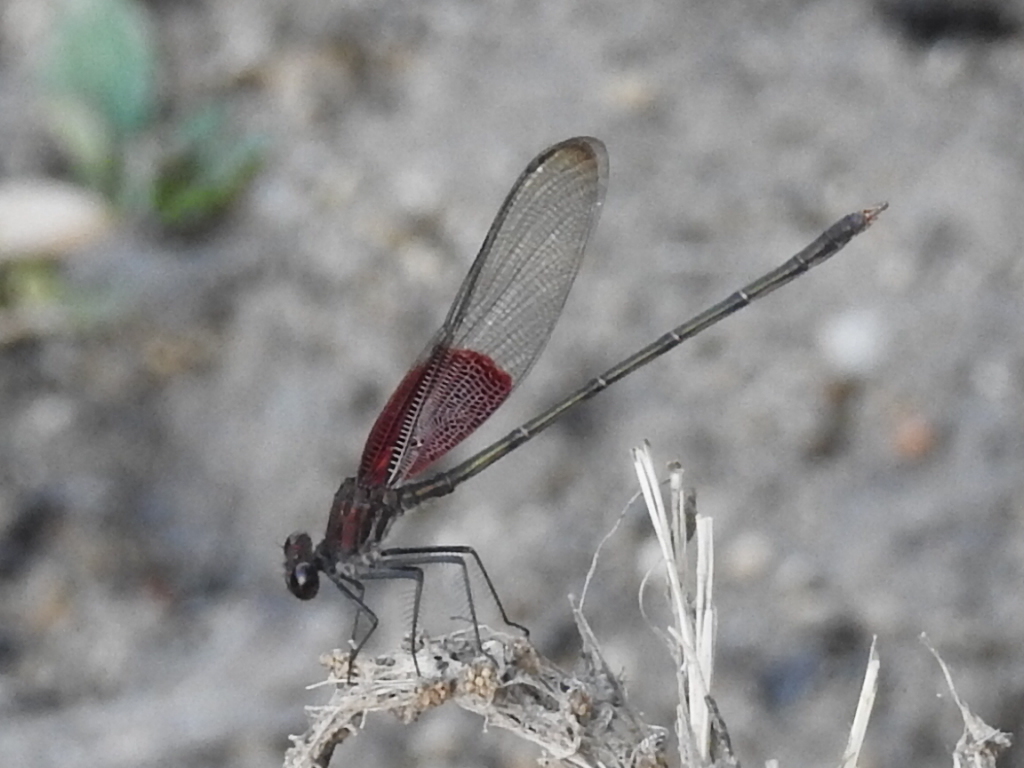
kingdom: Animalia
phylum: Arthropoda
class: Insecta
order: Odonata
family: Calopterygidae
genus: Hetaerina
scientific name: Hetaerina americana
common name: American rubyspot
